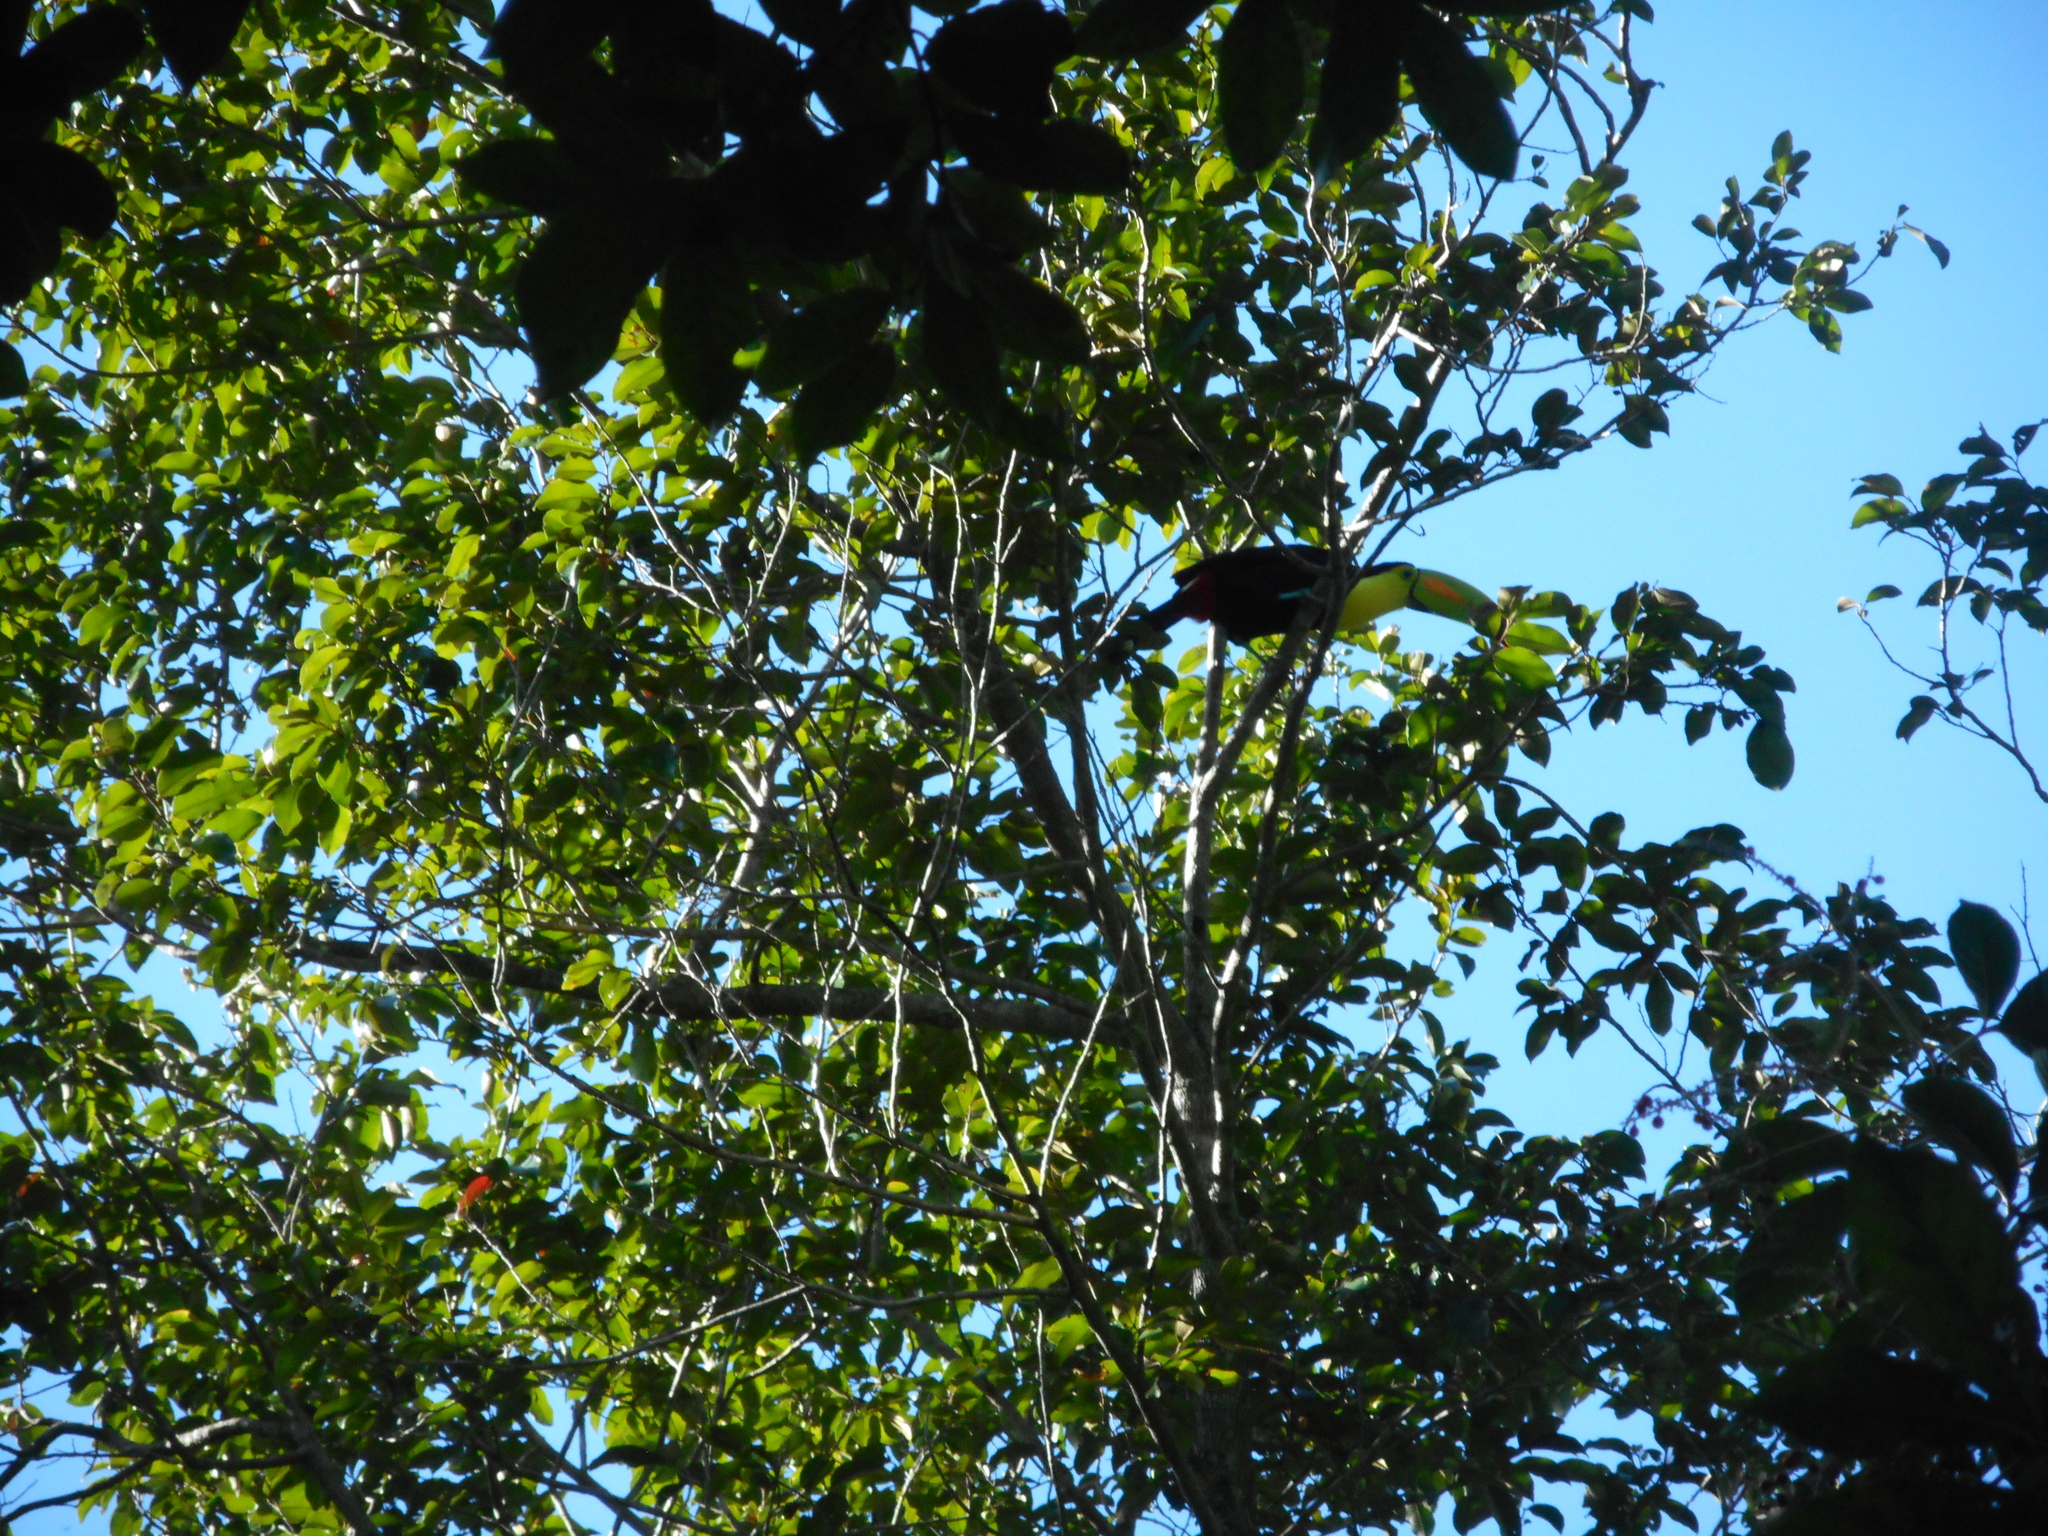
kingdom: Animalia
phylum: Chordata
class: Aves
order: Piciformes
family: Ramphastidae
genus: Ramphastos
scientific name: Ramphastos sulfuratus
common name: Keel-billed toucan
